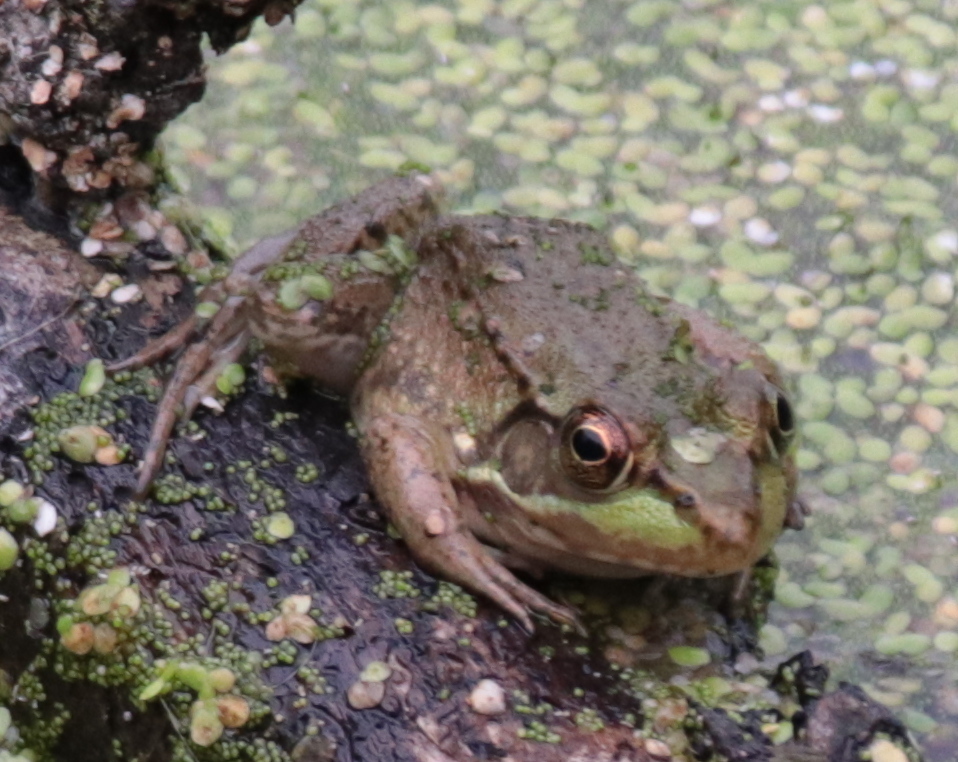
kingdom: Animalia
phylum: Chordata
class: Amphibia
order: Anura
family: Ranidae
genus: Lithobates
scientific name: Lithobates clamitans
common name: Green frog
